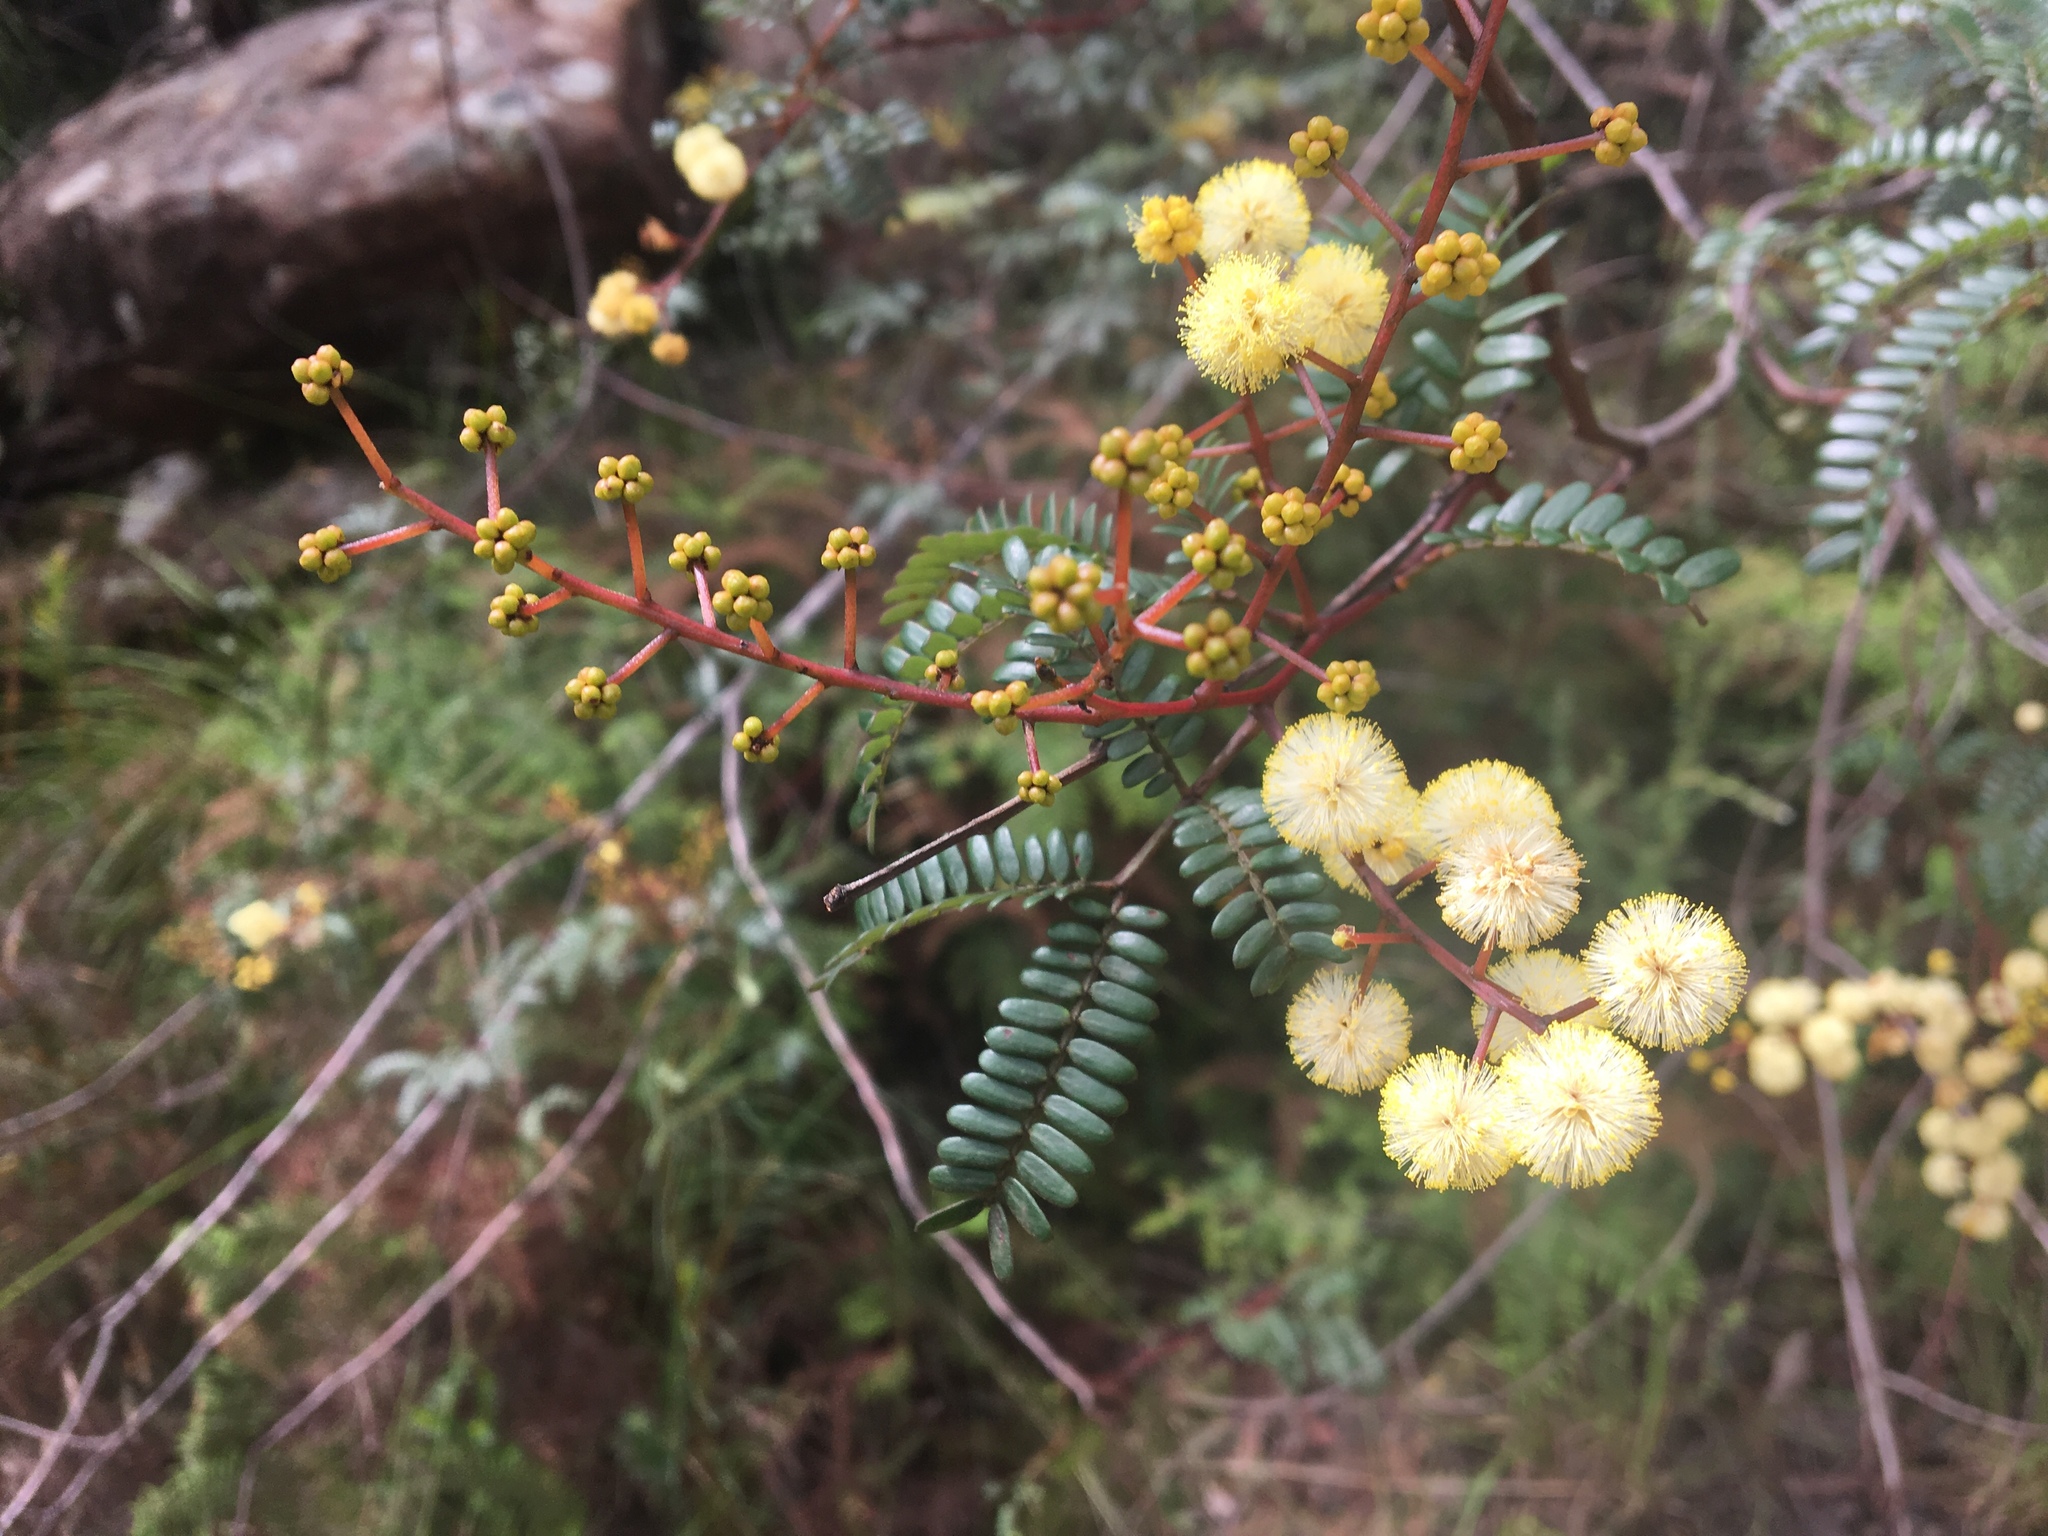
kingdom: Plantae
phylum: Tracheophyta
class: Magnoliopsida
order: Fabales
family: Fabaceae
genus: Acacia
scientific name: Acacia terminalis
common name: Cedar wattle
